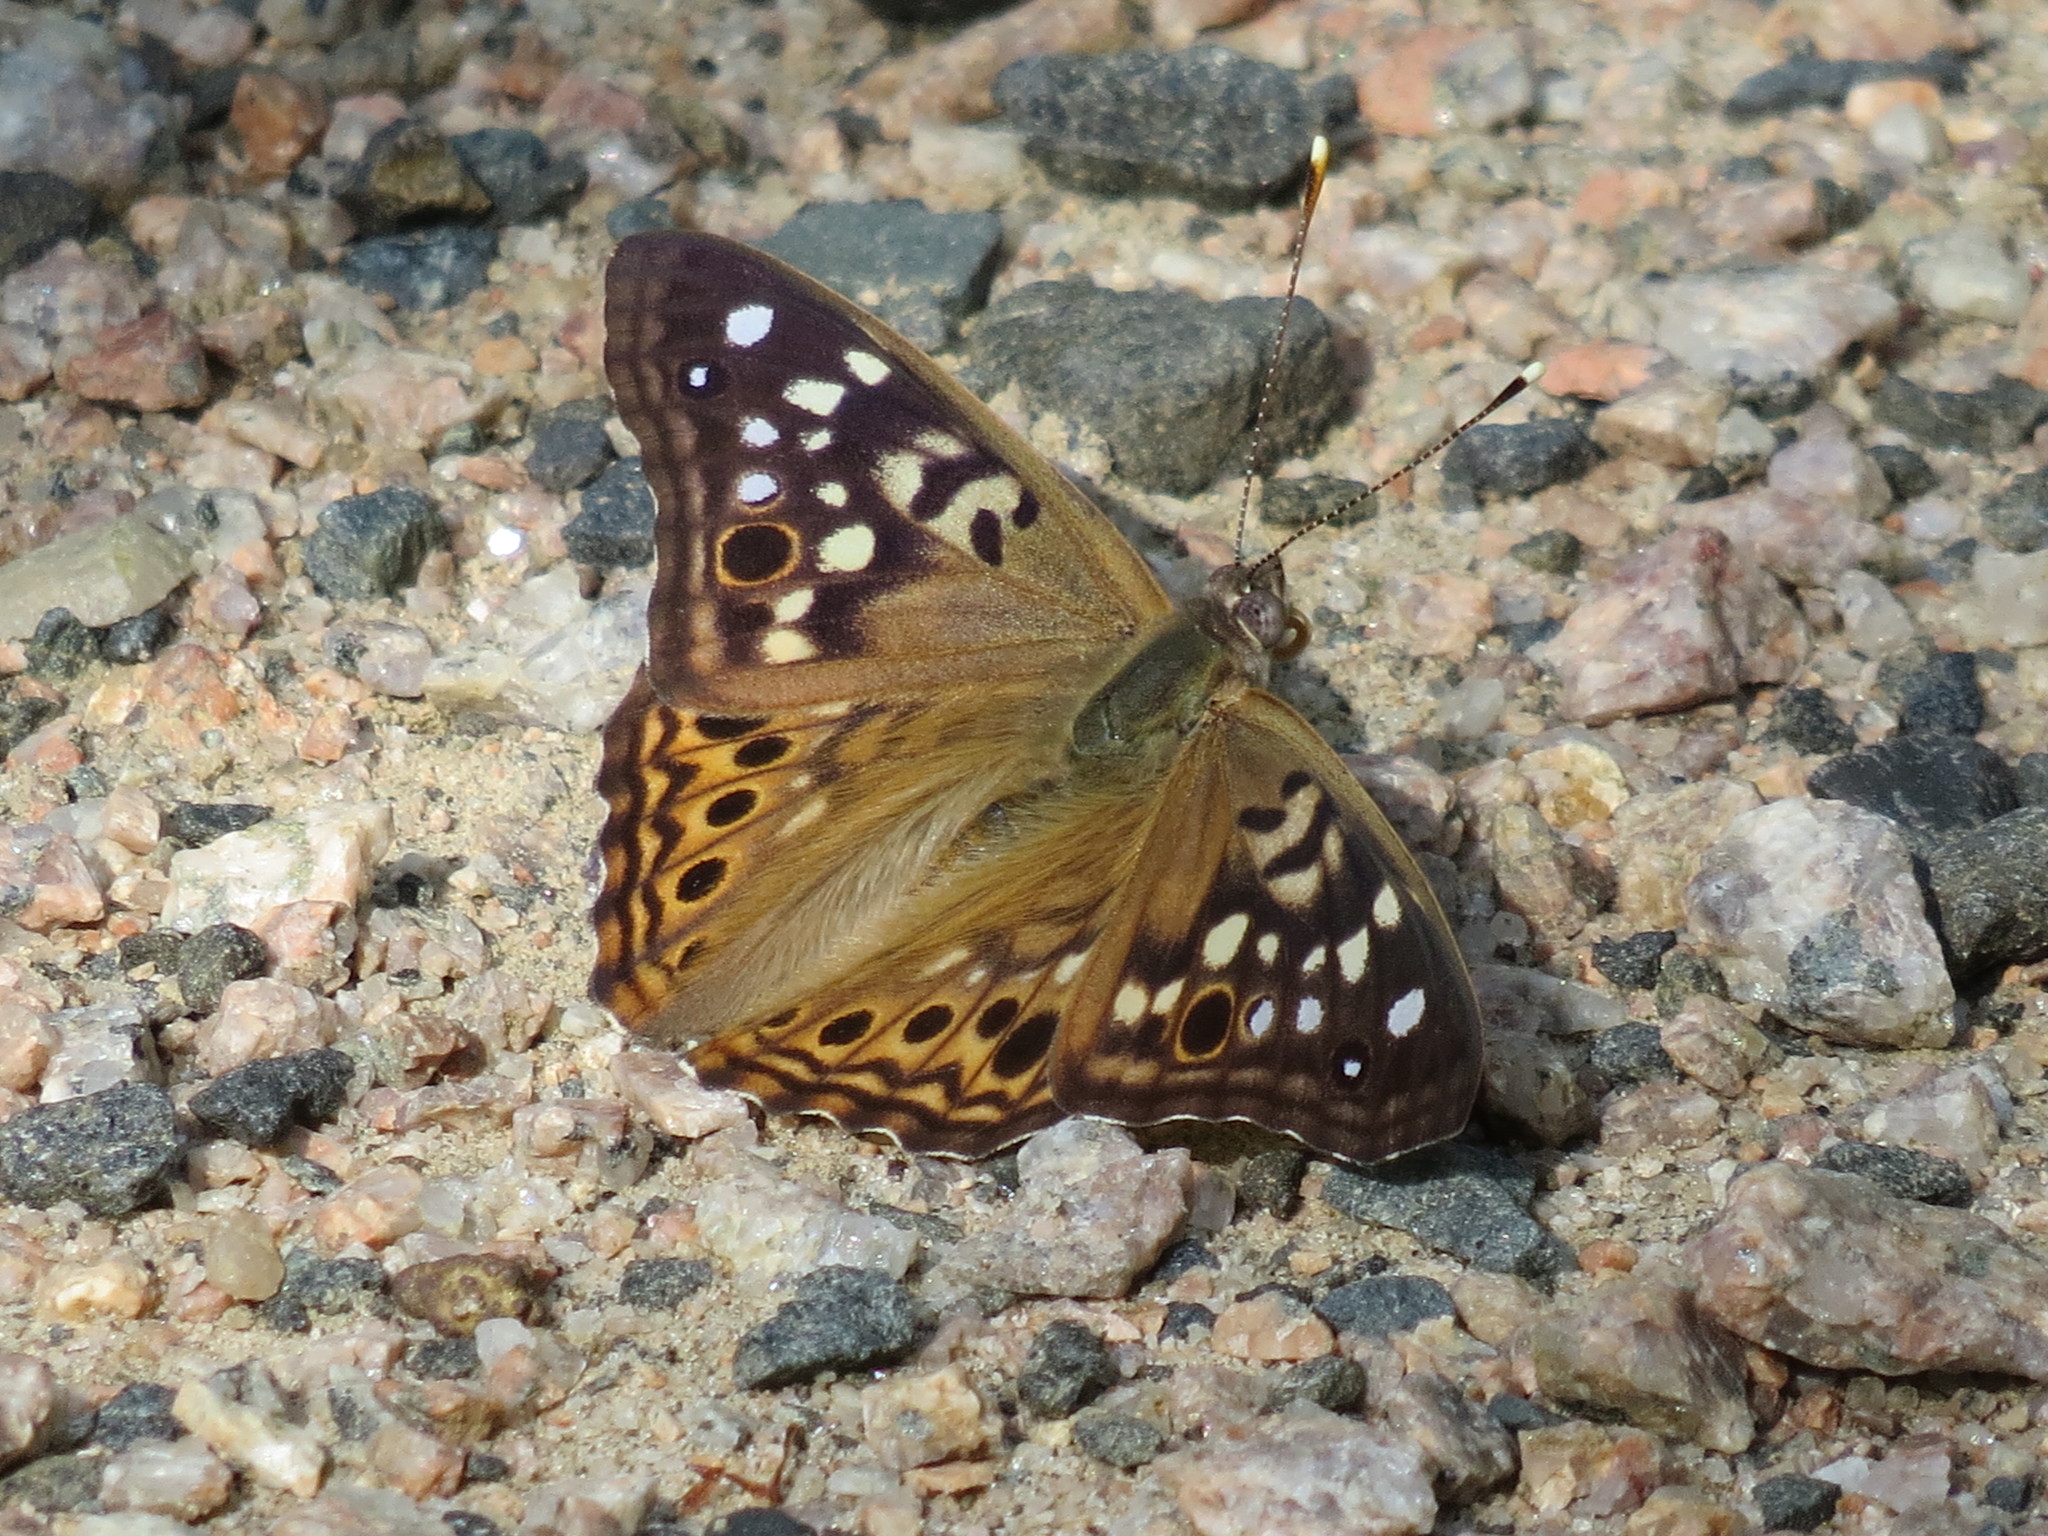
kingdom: Animalia
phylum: Arthropoda
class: Insecta
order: Lepidoptera
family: Nymphalidae
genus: Asterocampa
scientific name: Asterocampa celtis
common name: Hackberry emperor
